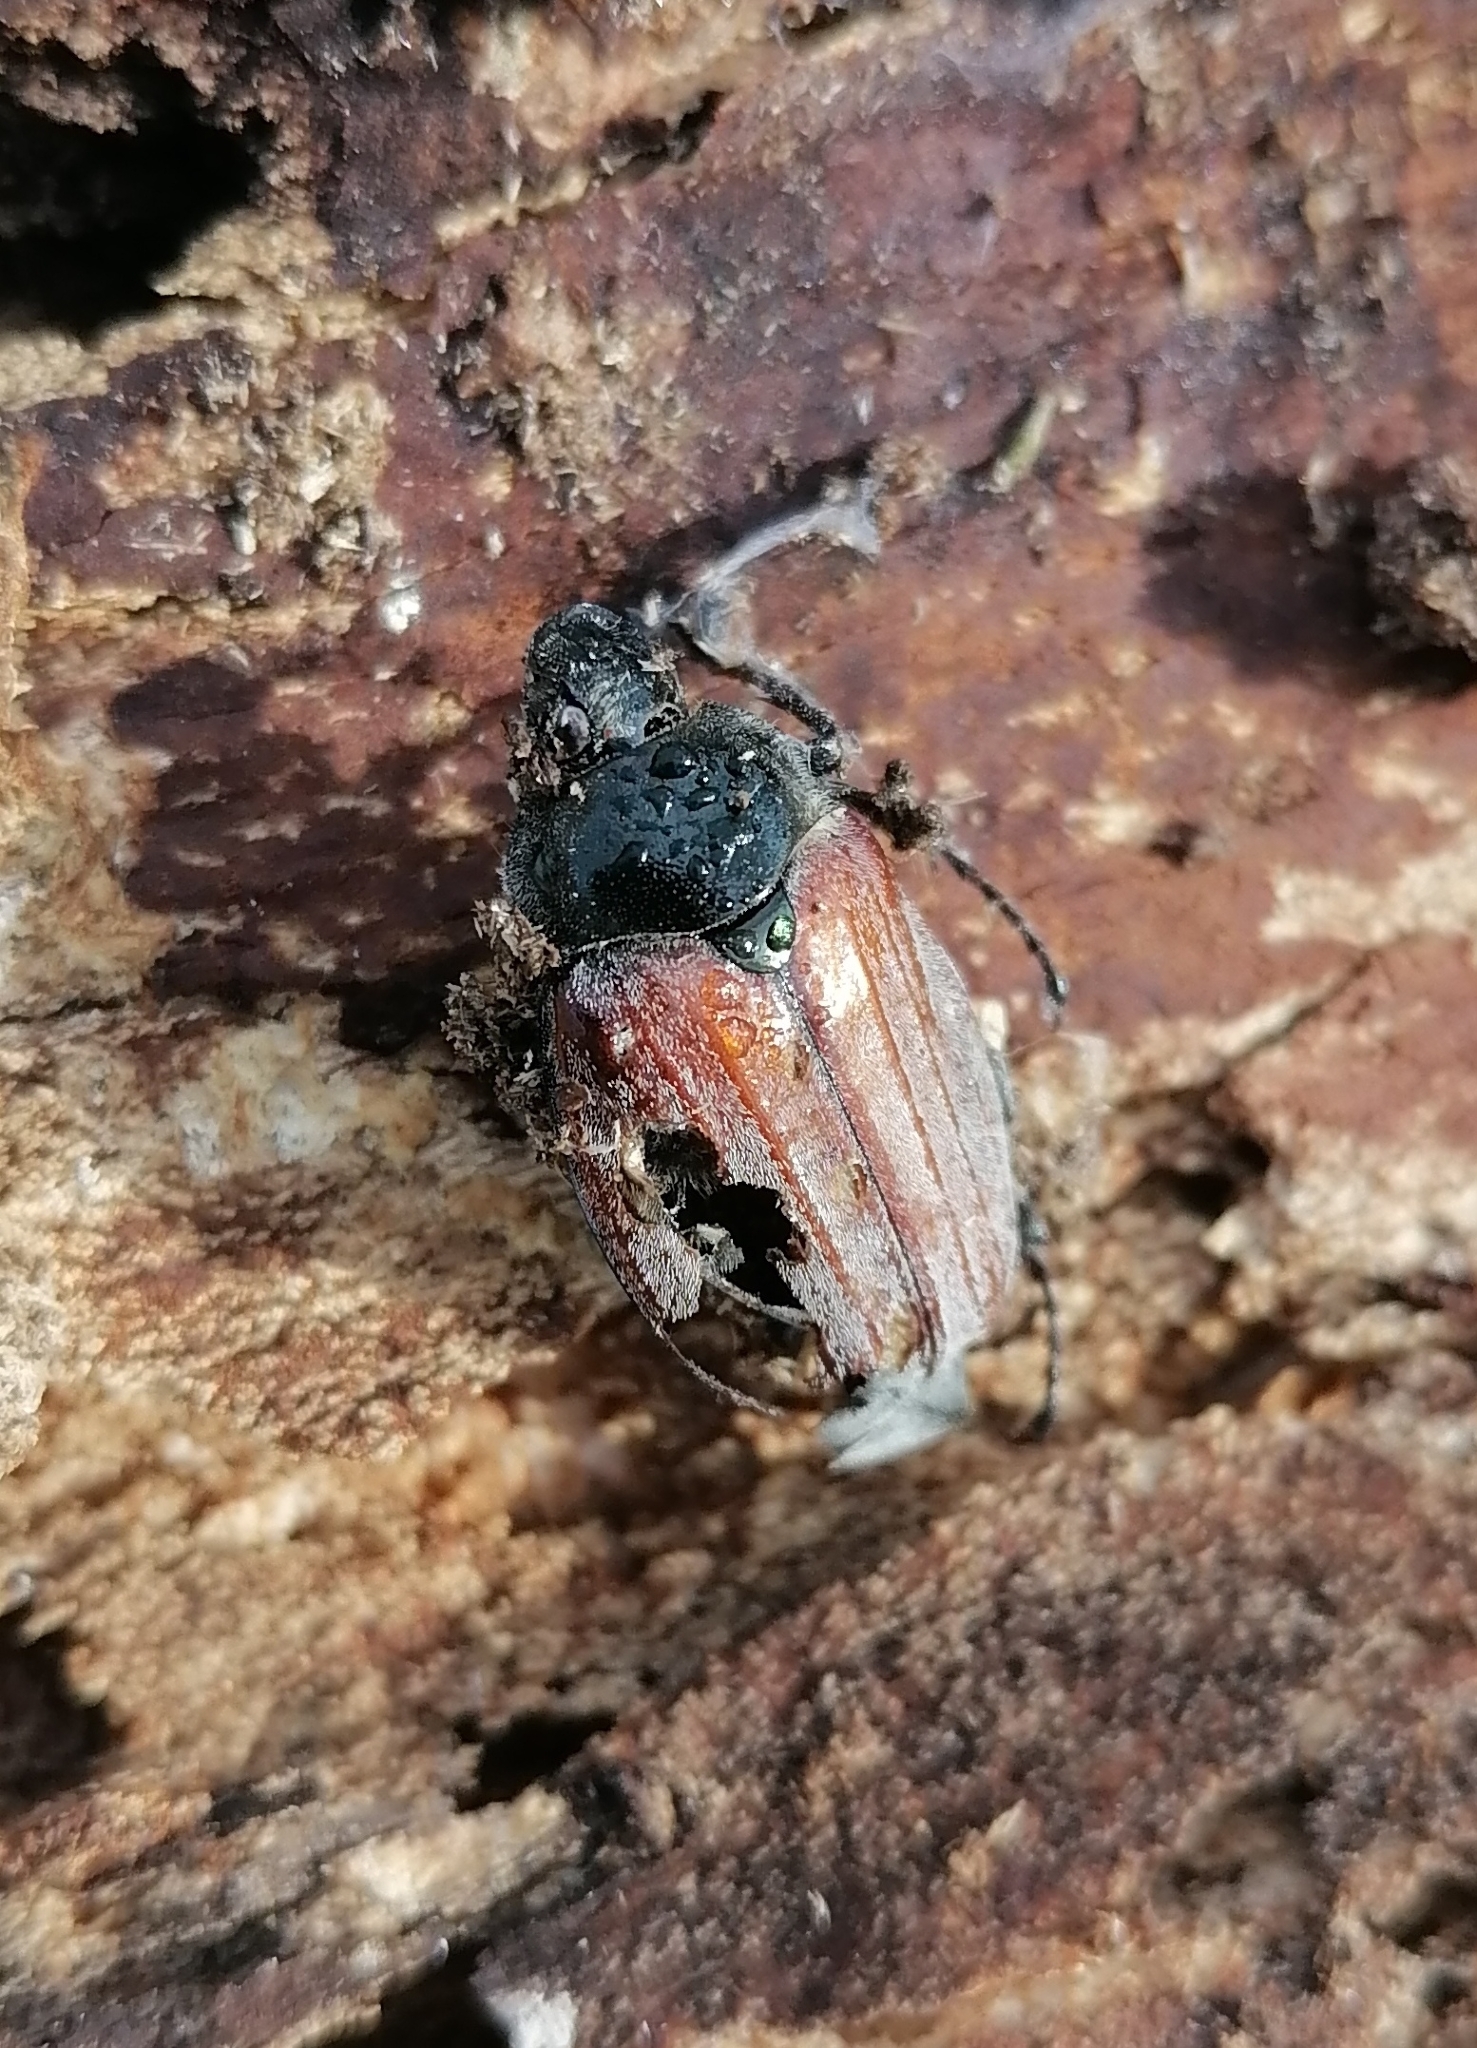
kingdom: Animalia
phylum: Arthropoda
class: Insecta
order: Coleoptera
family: Scarabaeidae
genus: Melolontha
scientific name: Melolontha hippocastani
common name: Chestnut cockchafer
